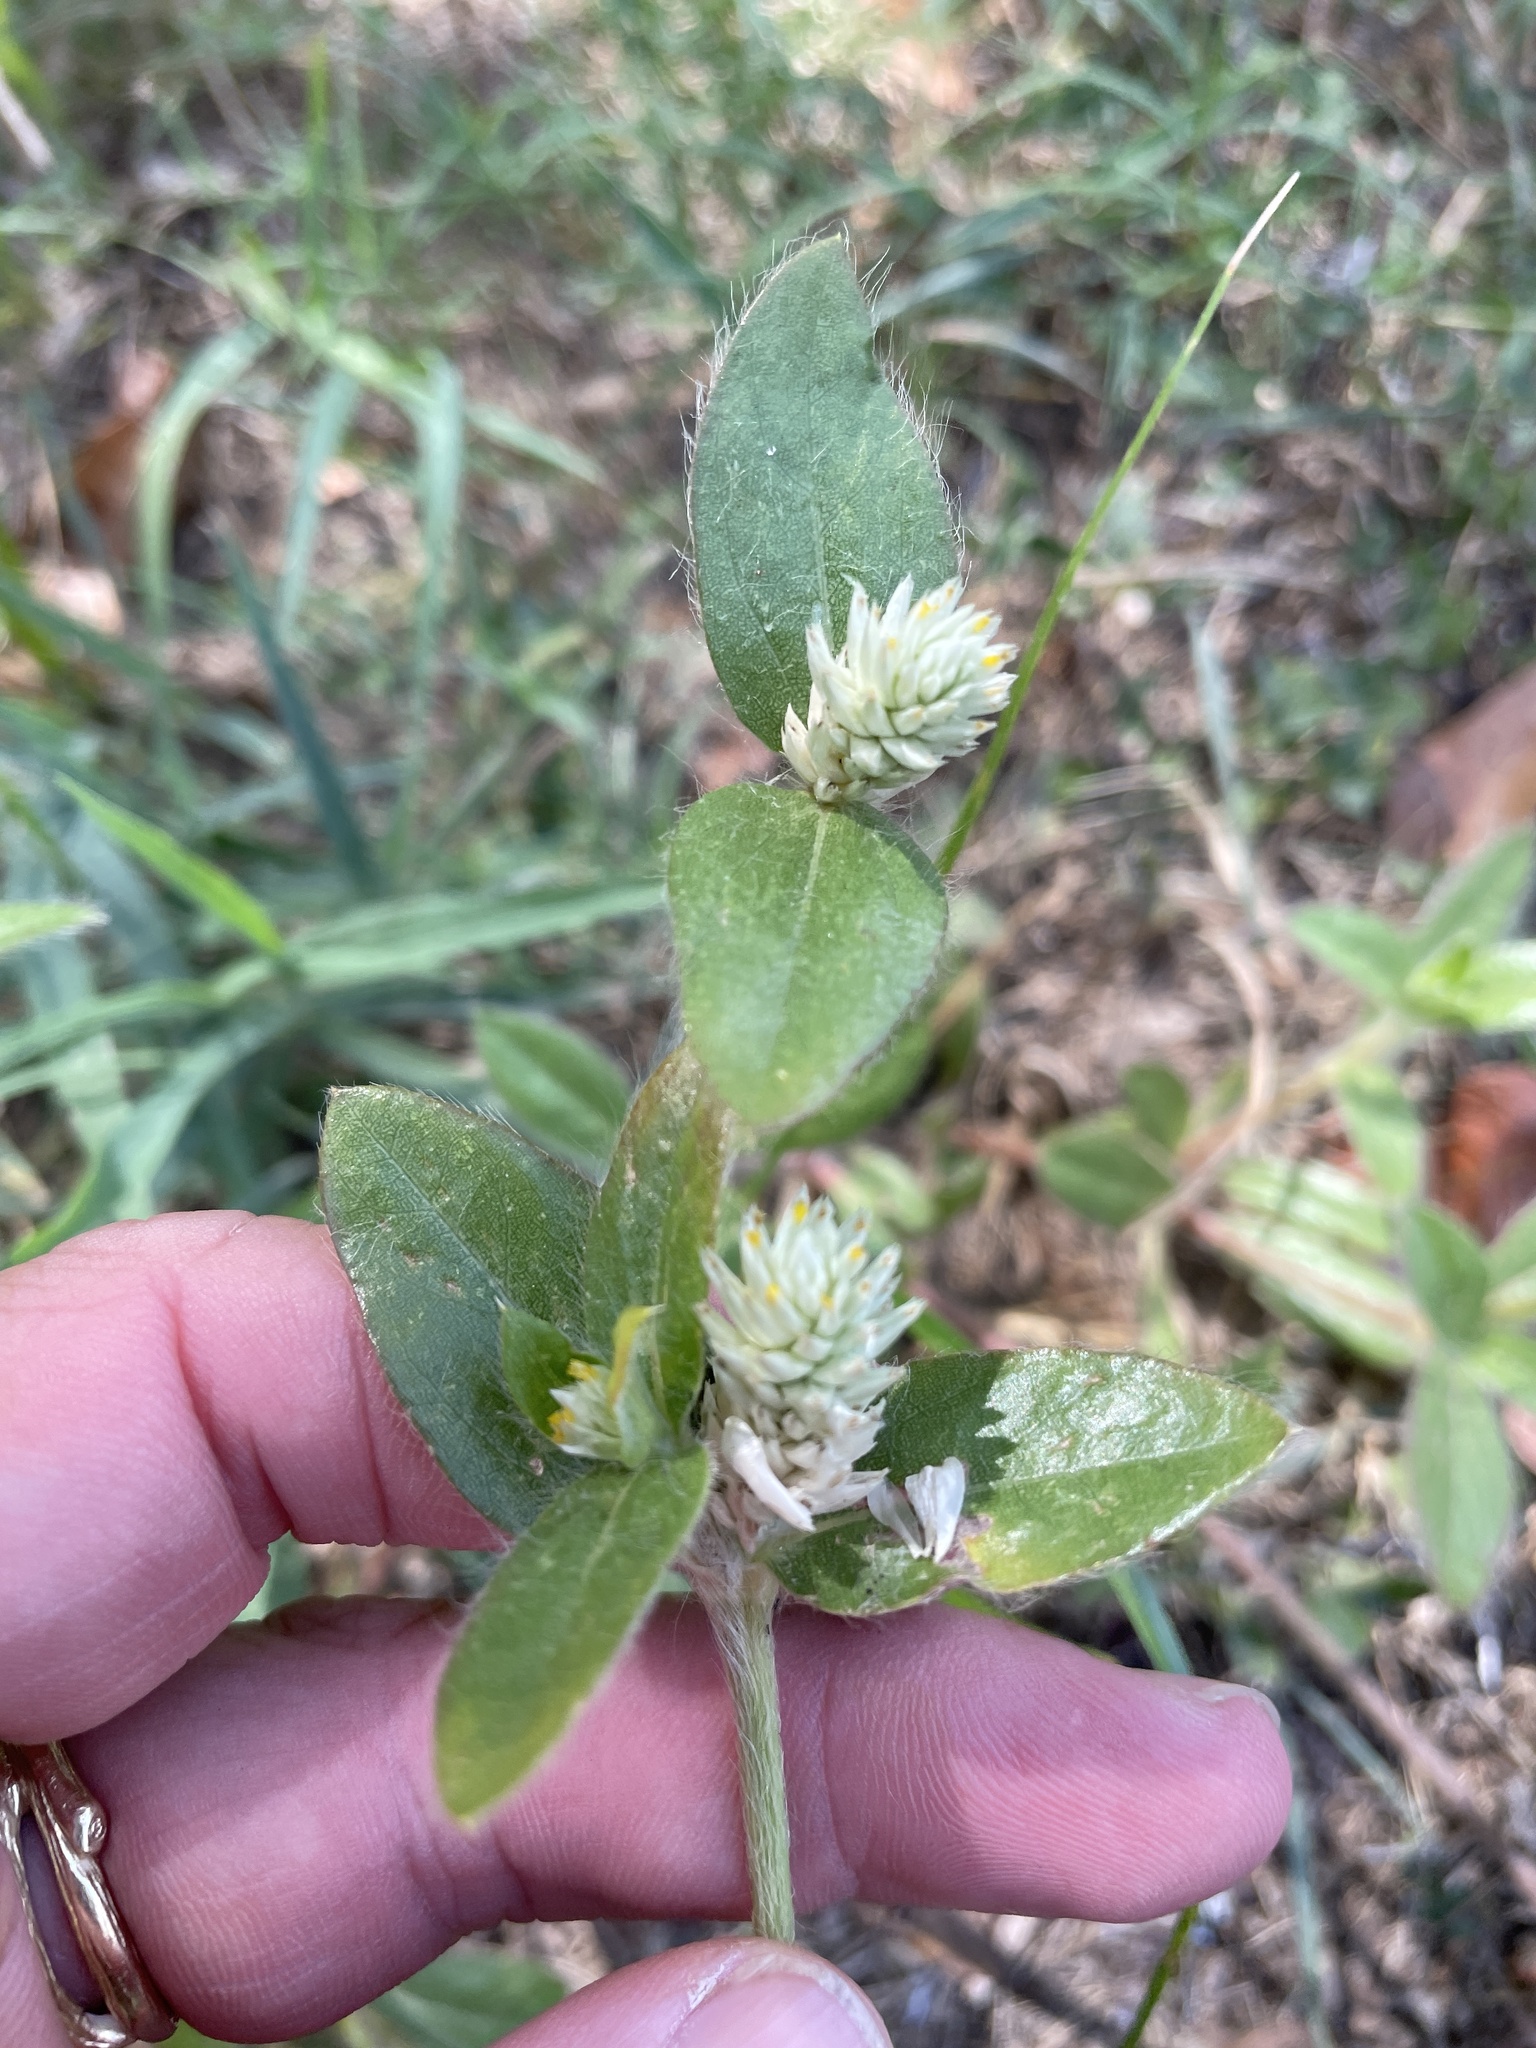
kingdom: Plantae
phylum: Tracheophyta
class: Magnoliopsida
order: Caryophyllales
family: Amaranthaceae
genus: Gomphrena
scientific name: Gomphrena serrata
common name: Arrasa con todo
